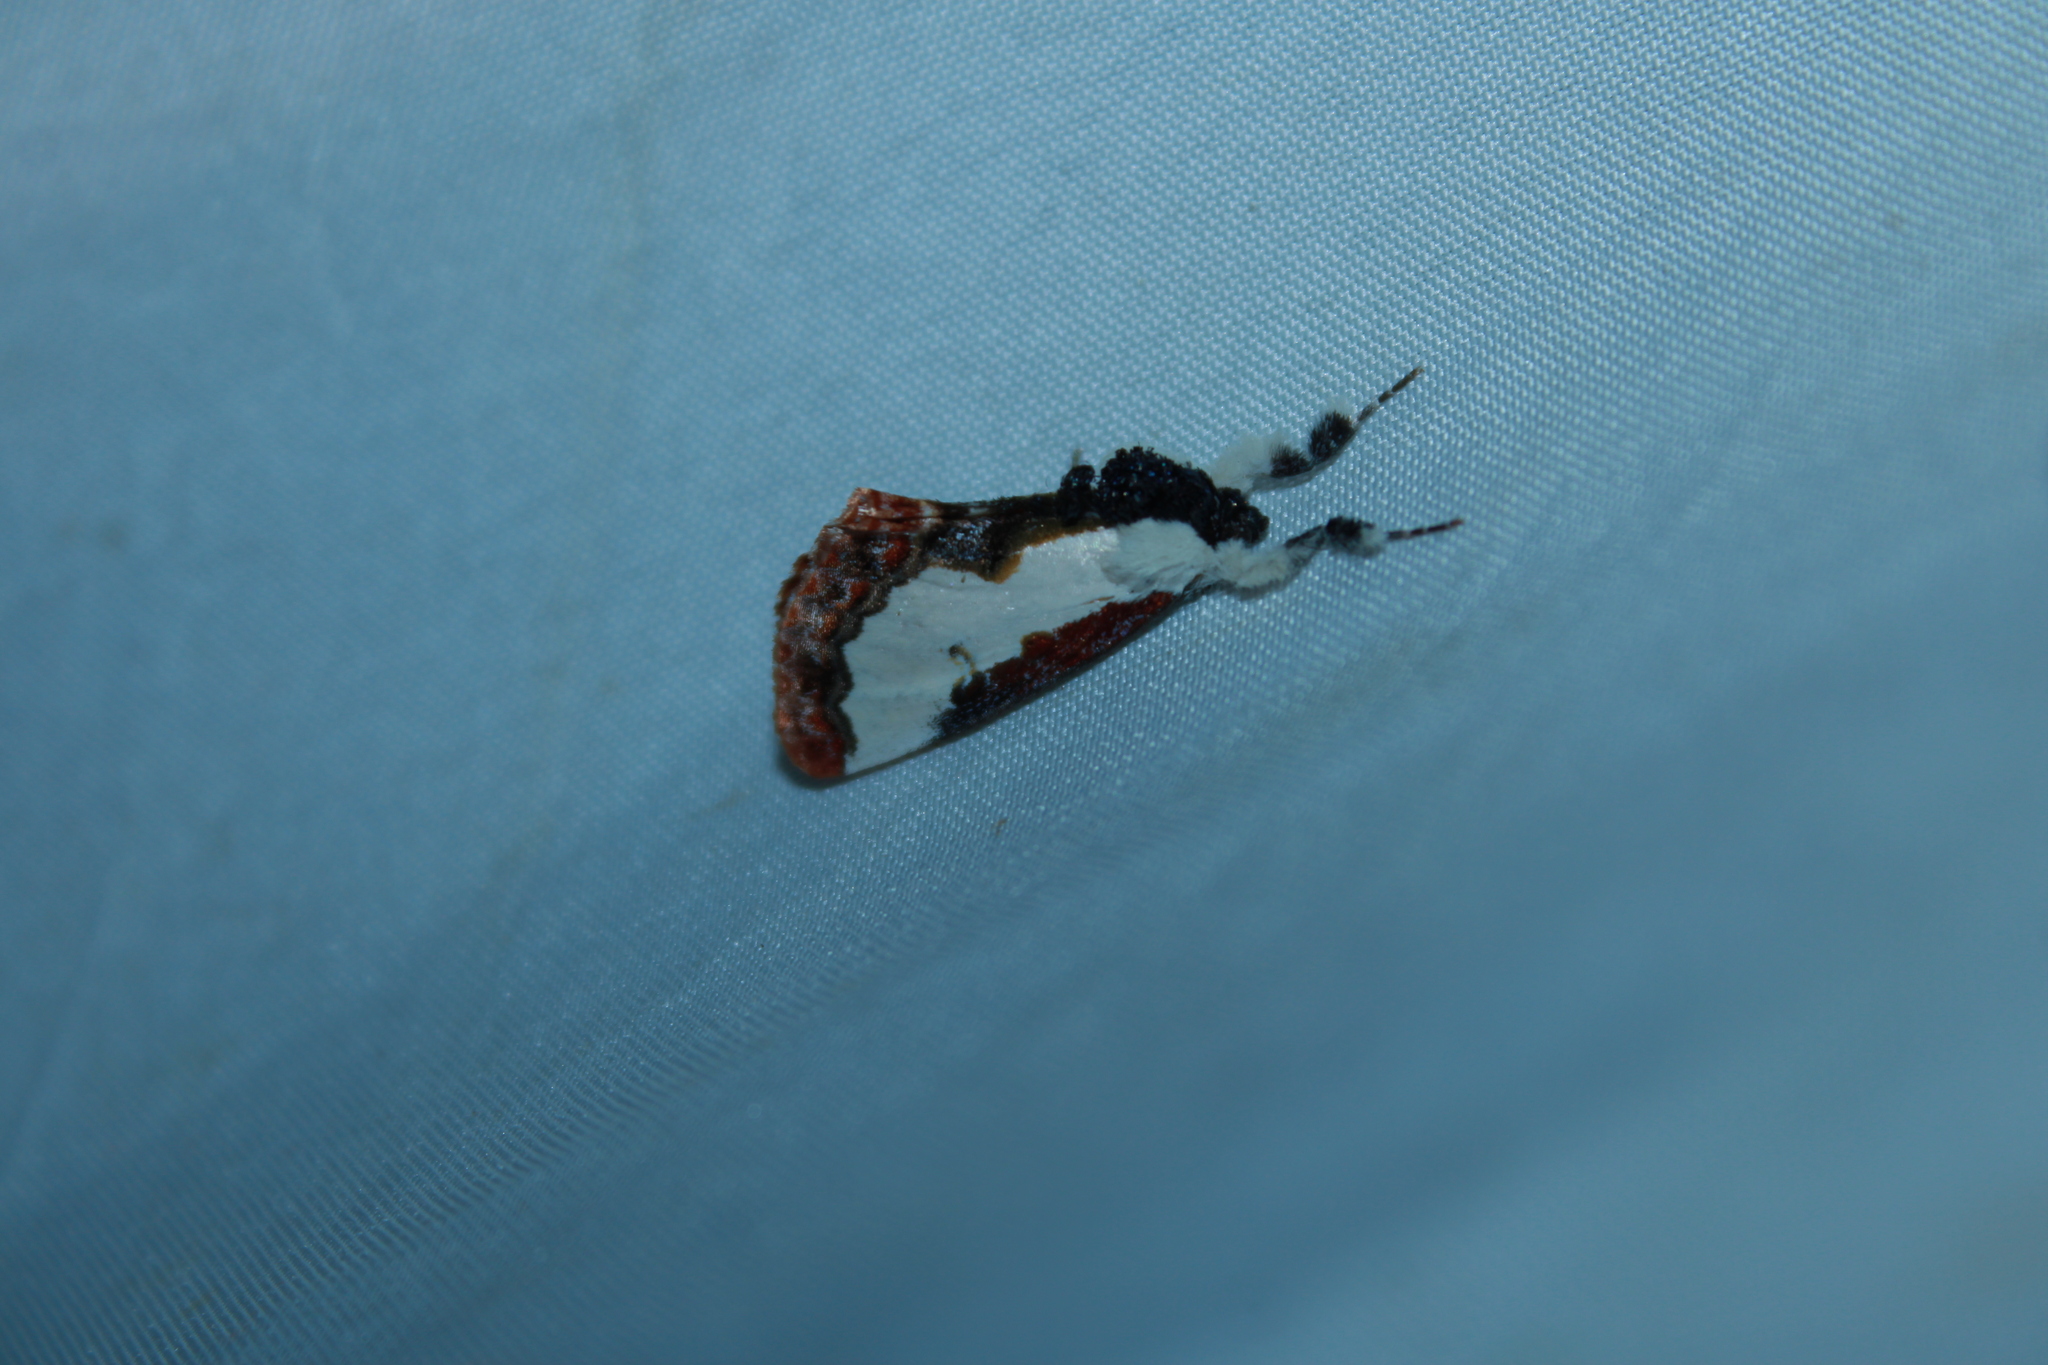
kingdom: Animalia
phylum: Arthropoda
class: Insecta
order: Lepidoptera
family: Noctuidae
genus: Eudryas
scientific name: Eudryas unio
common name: Pearly wood-nymph
